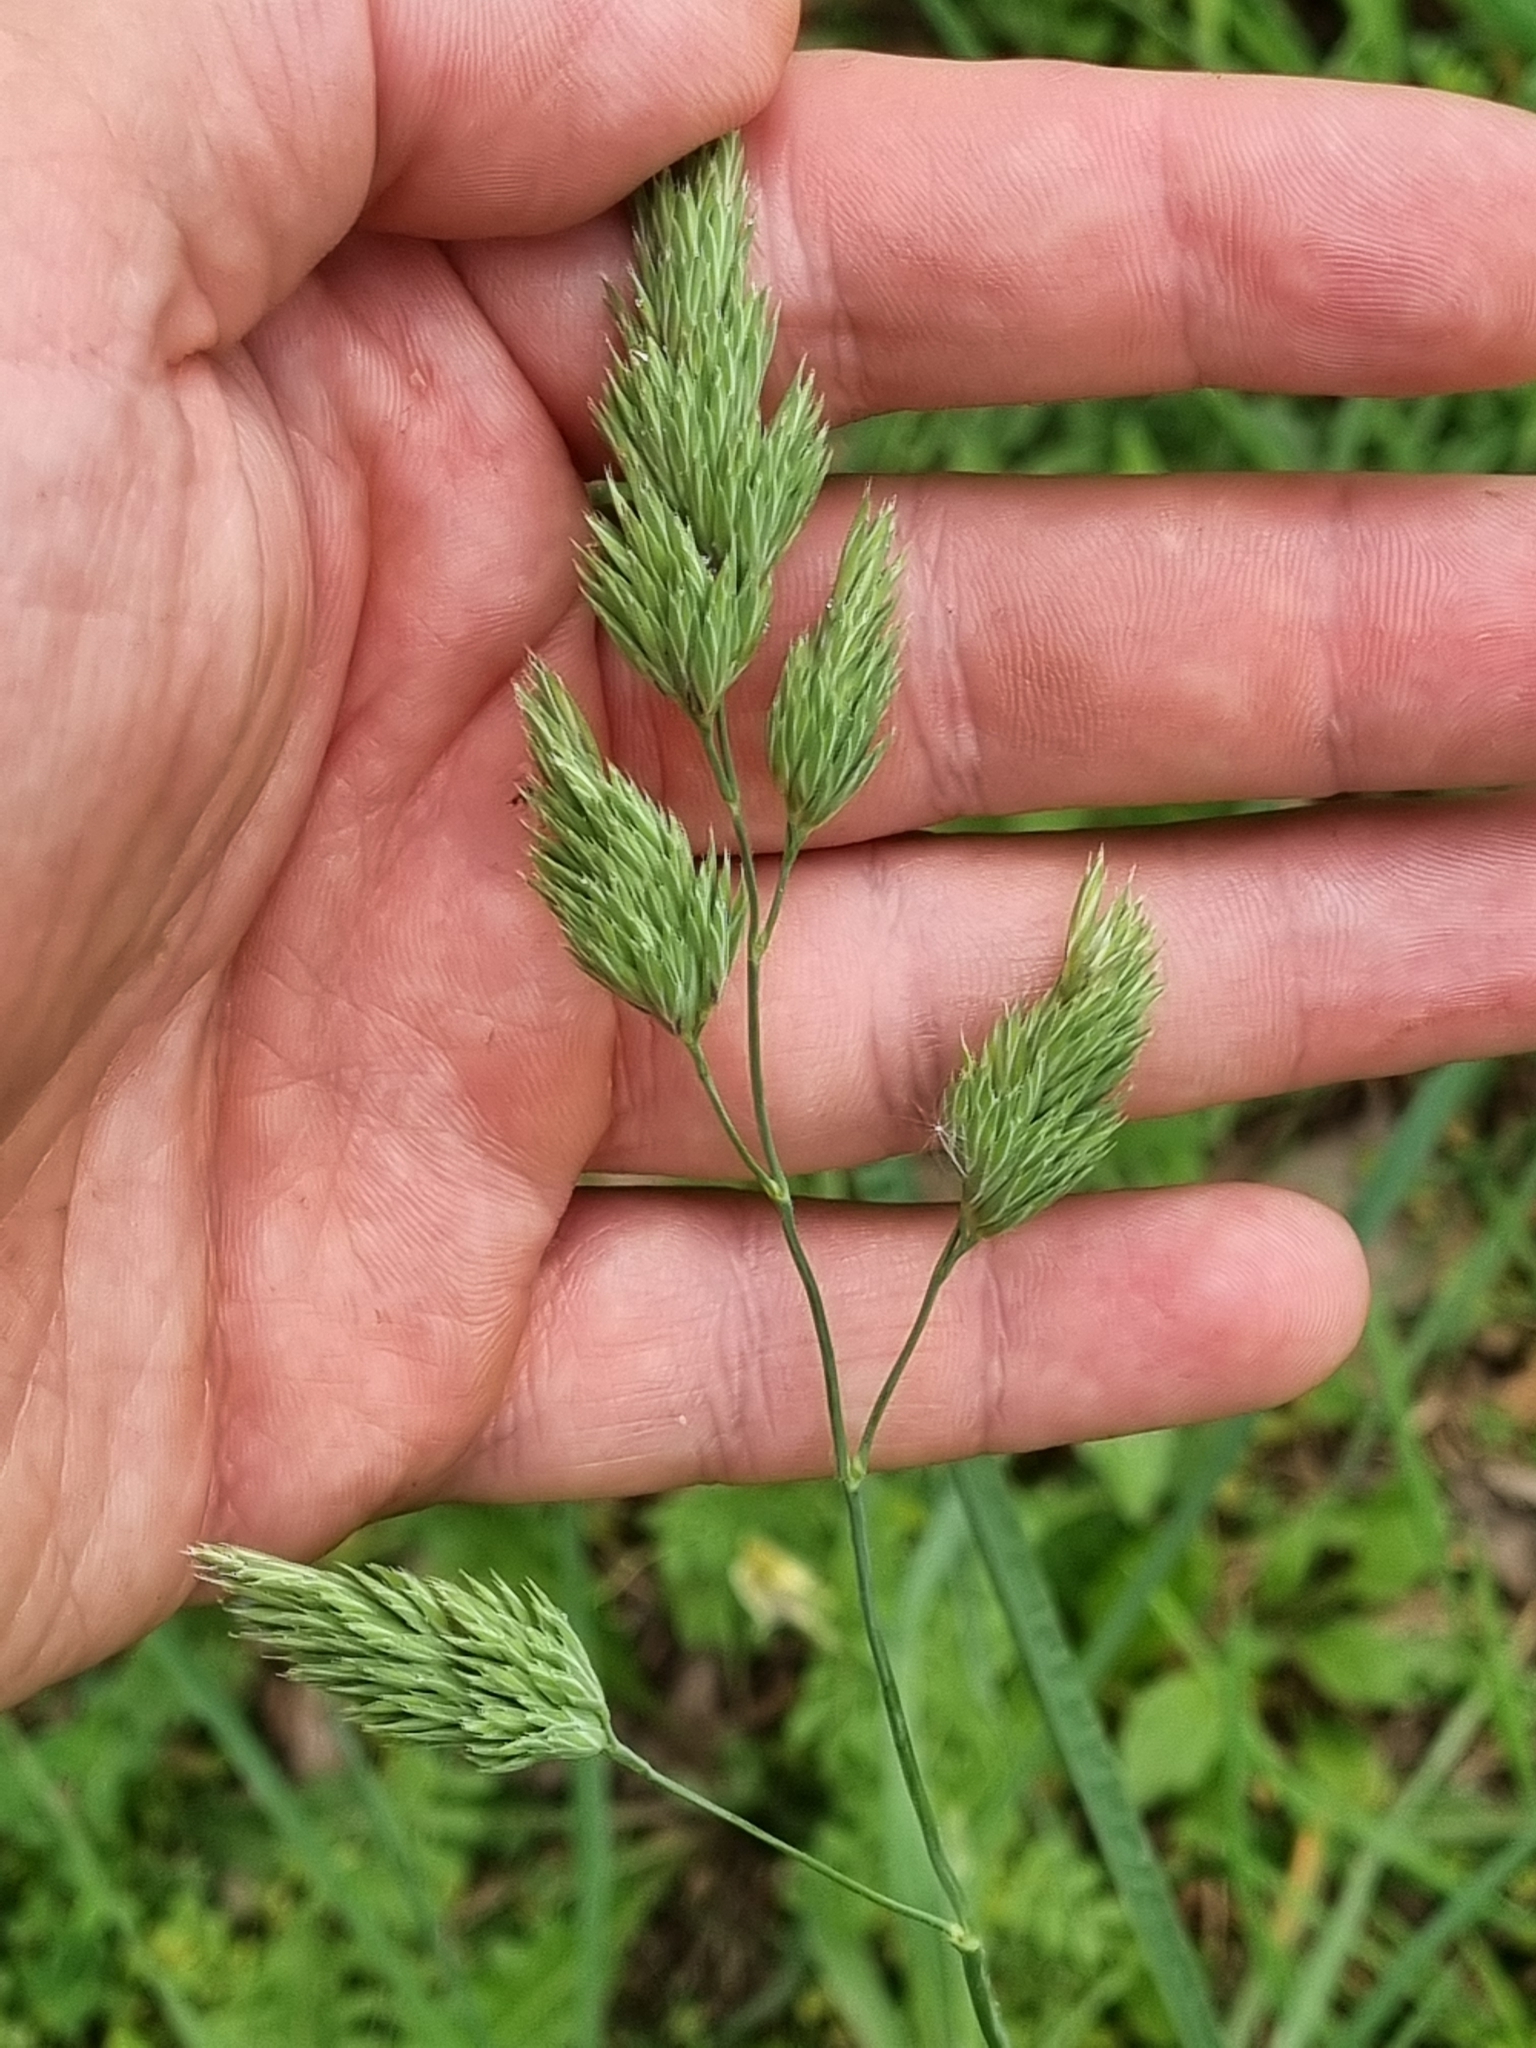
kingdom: Plantae
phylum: Tracheophyta
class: Liliopsida
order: Poales
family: Poaceae
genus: Dactylis
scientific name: Dactylis glomerata
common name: Orchardgrass
